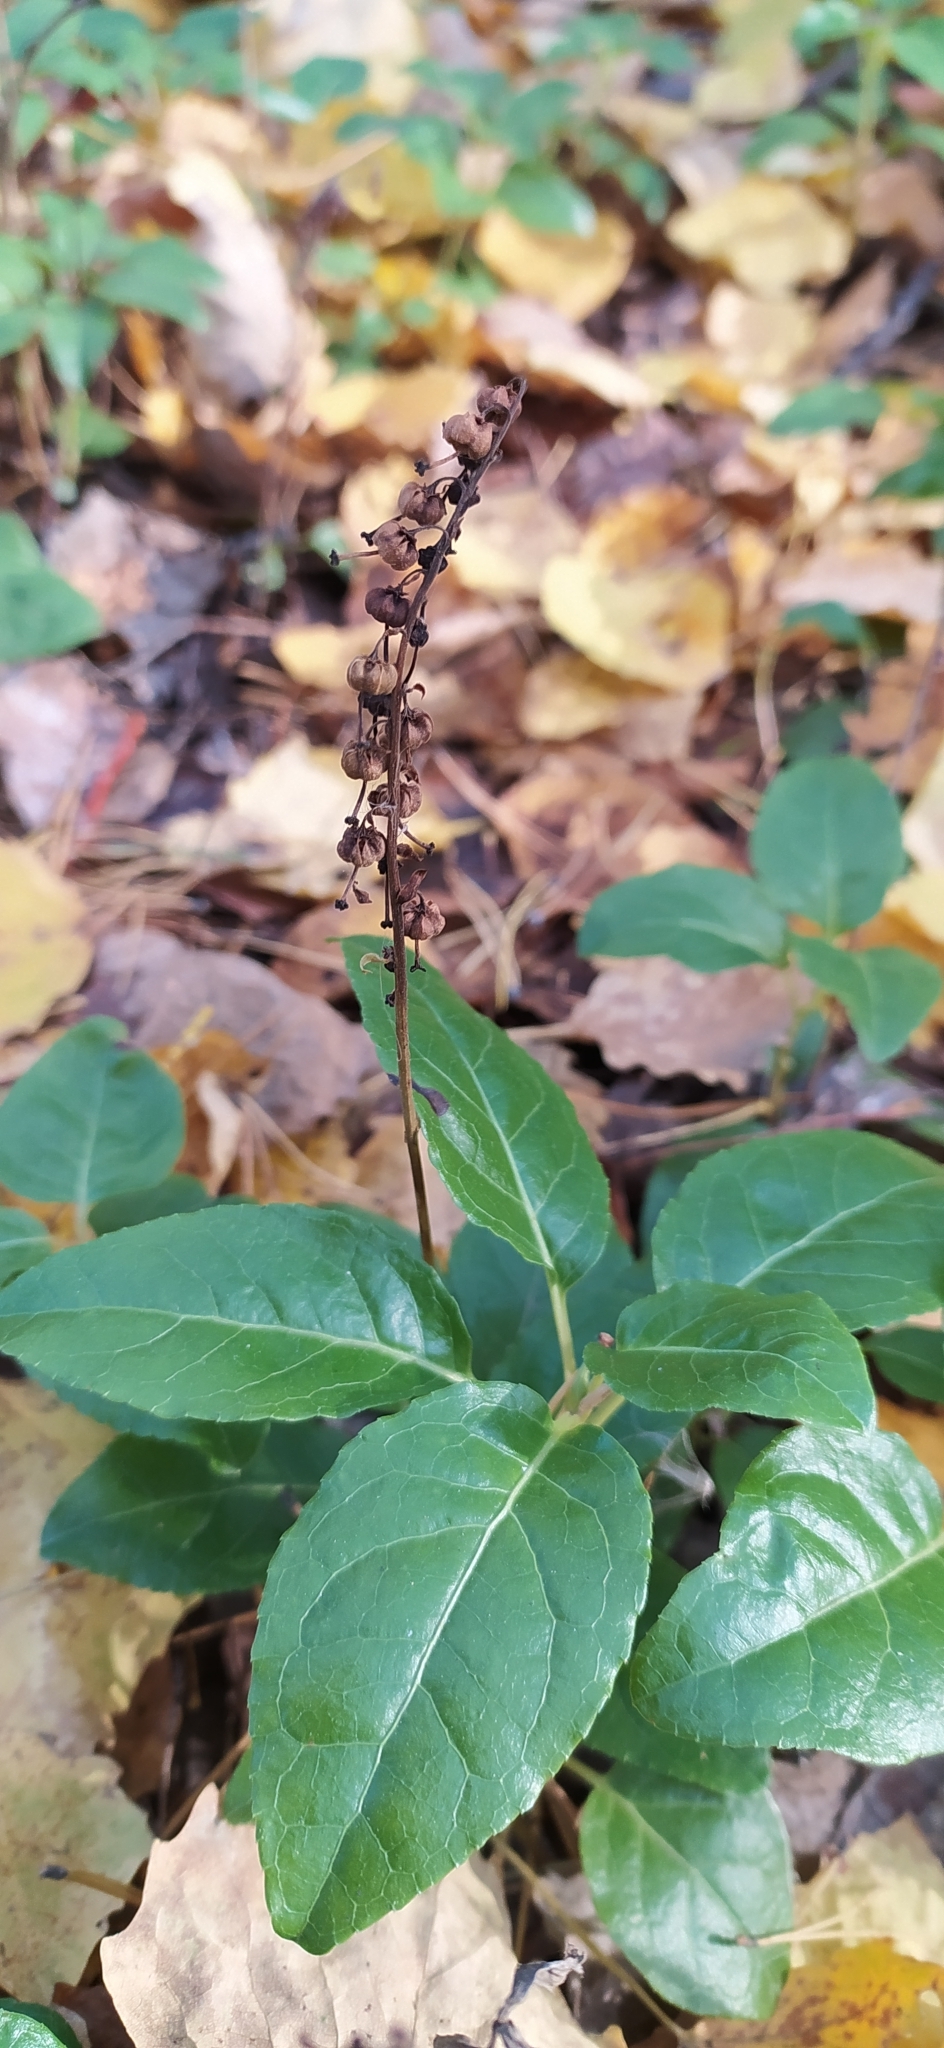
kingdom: Plantae
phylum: Tracheophyta
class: Magnoliopsida
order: Ericales
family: Ericaceae
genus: Orthilia
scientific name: Orthilia secunda
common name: One-sided orthilia
